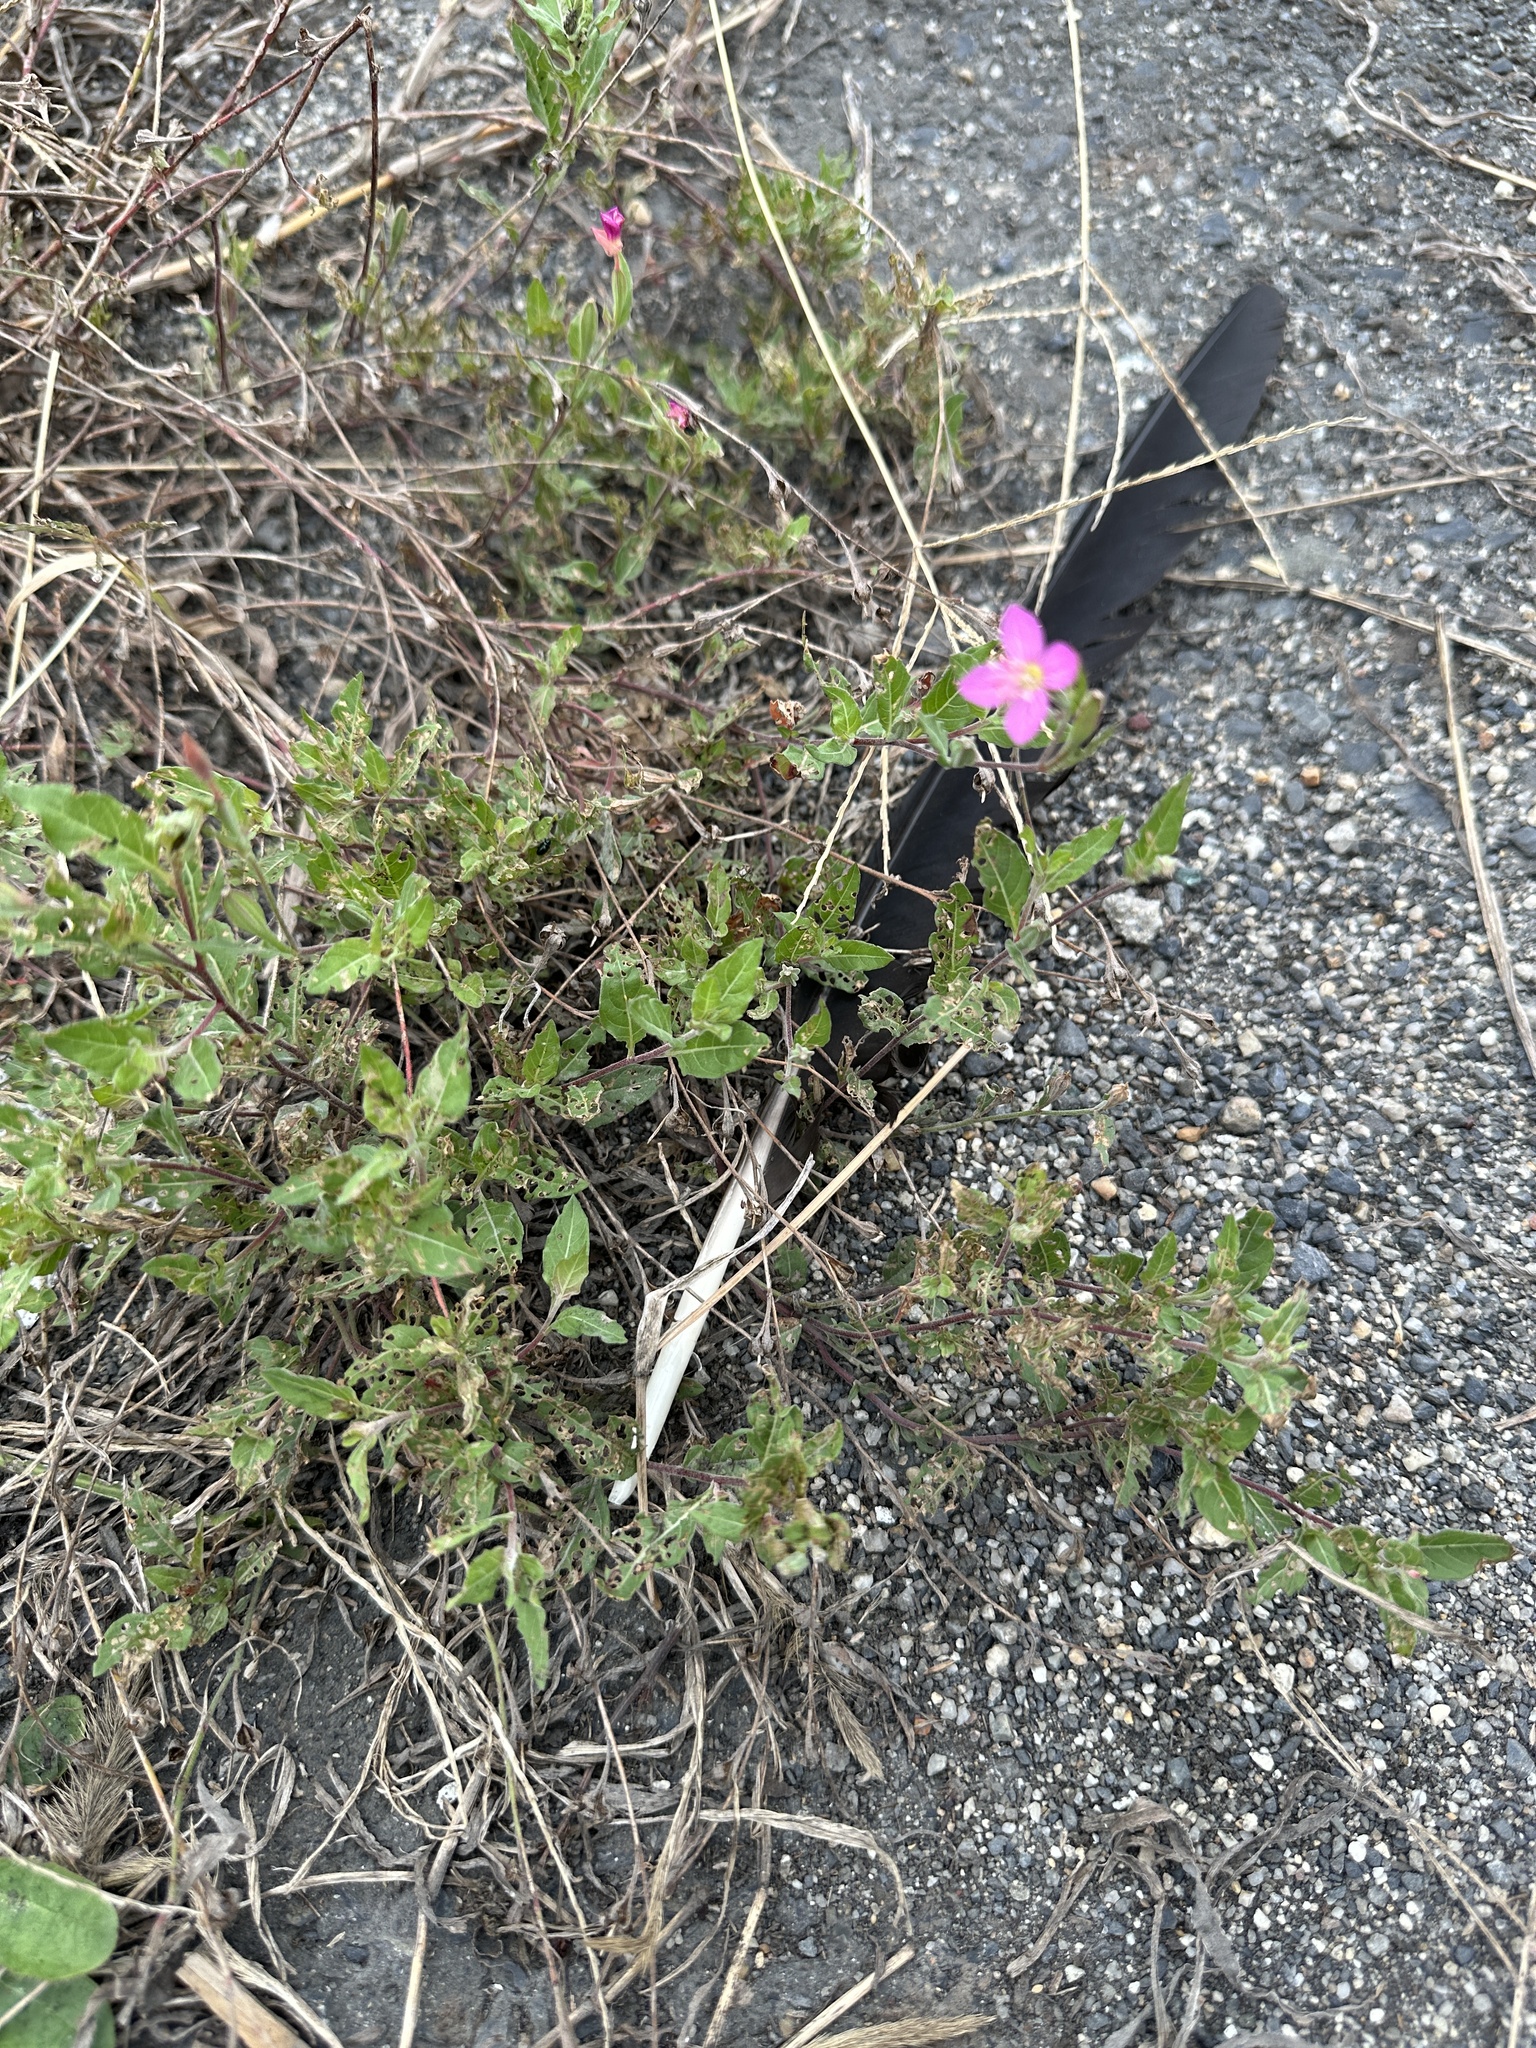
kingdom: Plantae
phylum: Tracheophyta
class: Magnoliopsida
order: Myrtales
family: Onagraceae
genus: Oenothera
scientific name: Oenothera rosea
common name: Rosy evening-primrose
